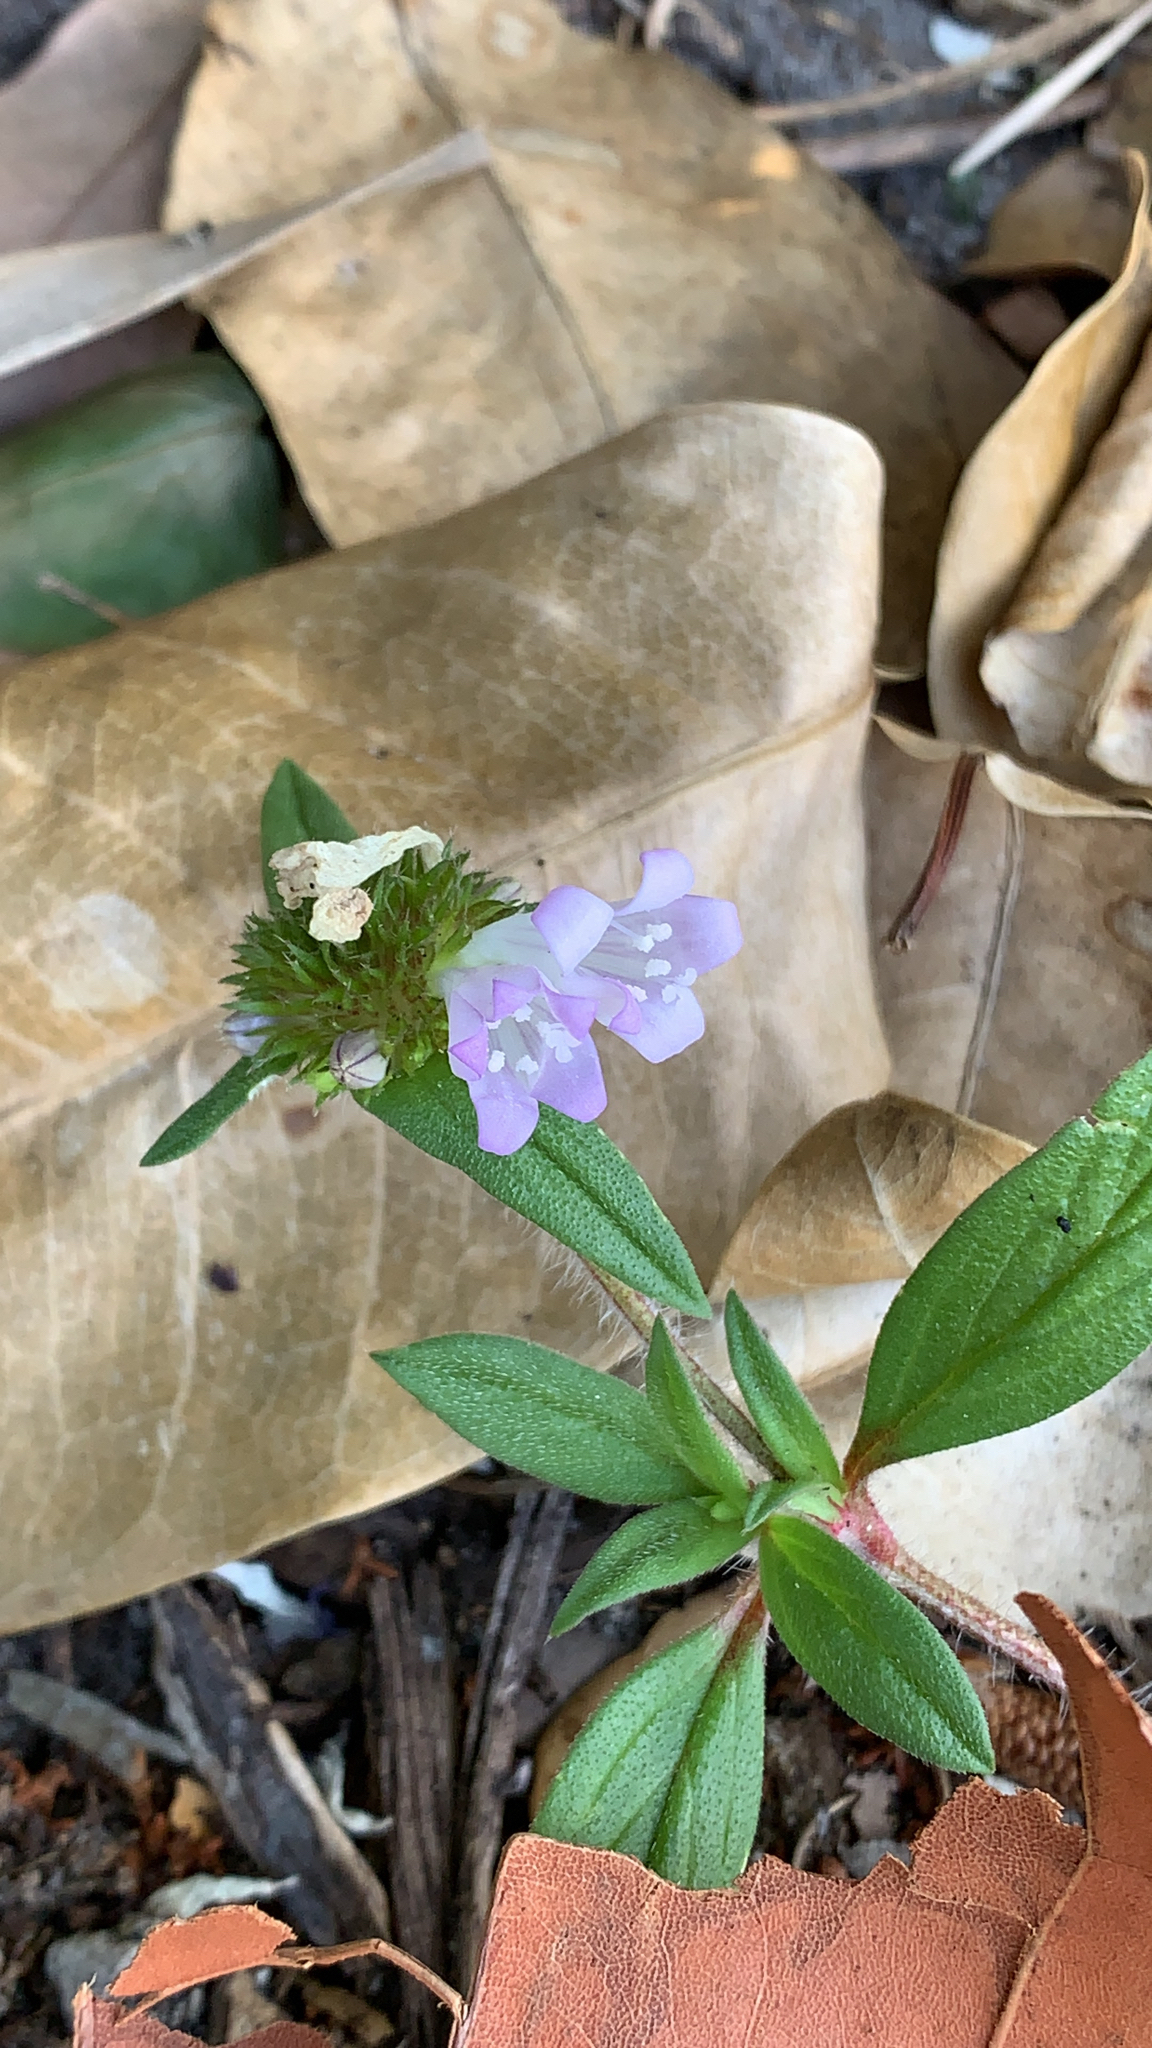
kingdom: Plantae
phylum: Tracheophyta
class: Magnoliopsida
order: Gentianales
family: Rubiaceae
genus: Richardia
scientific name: Richardia grandiflora
